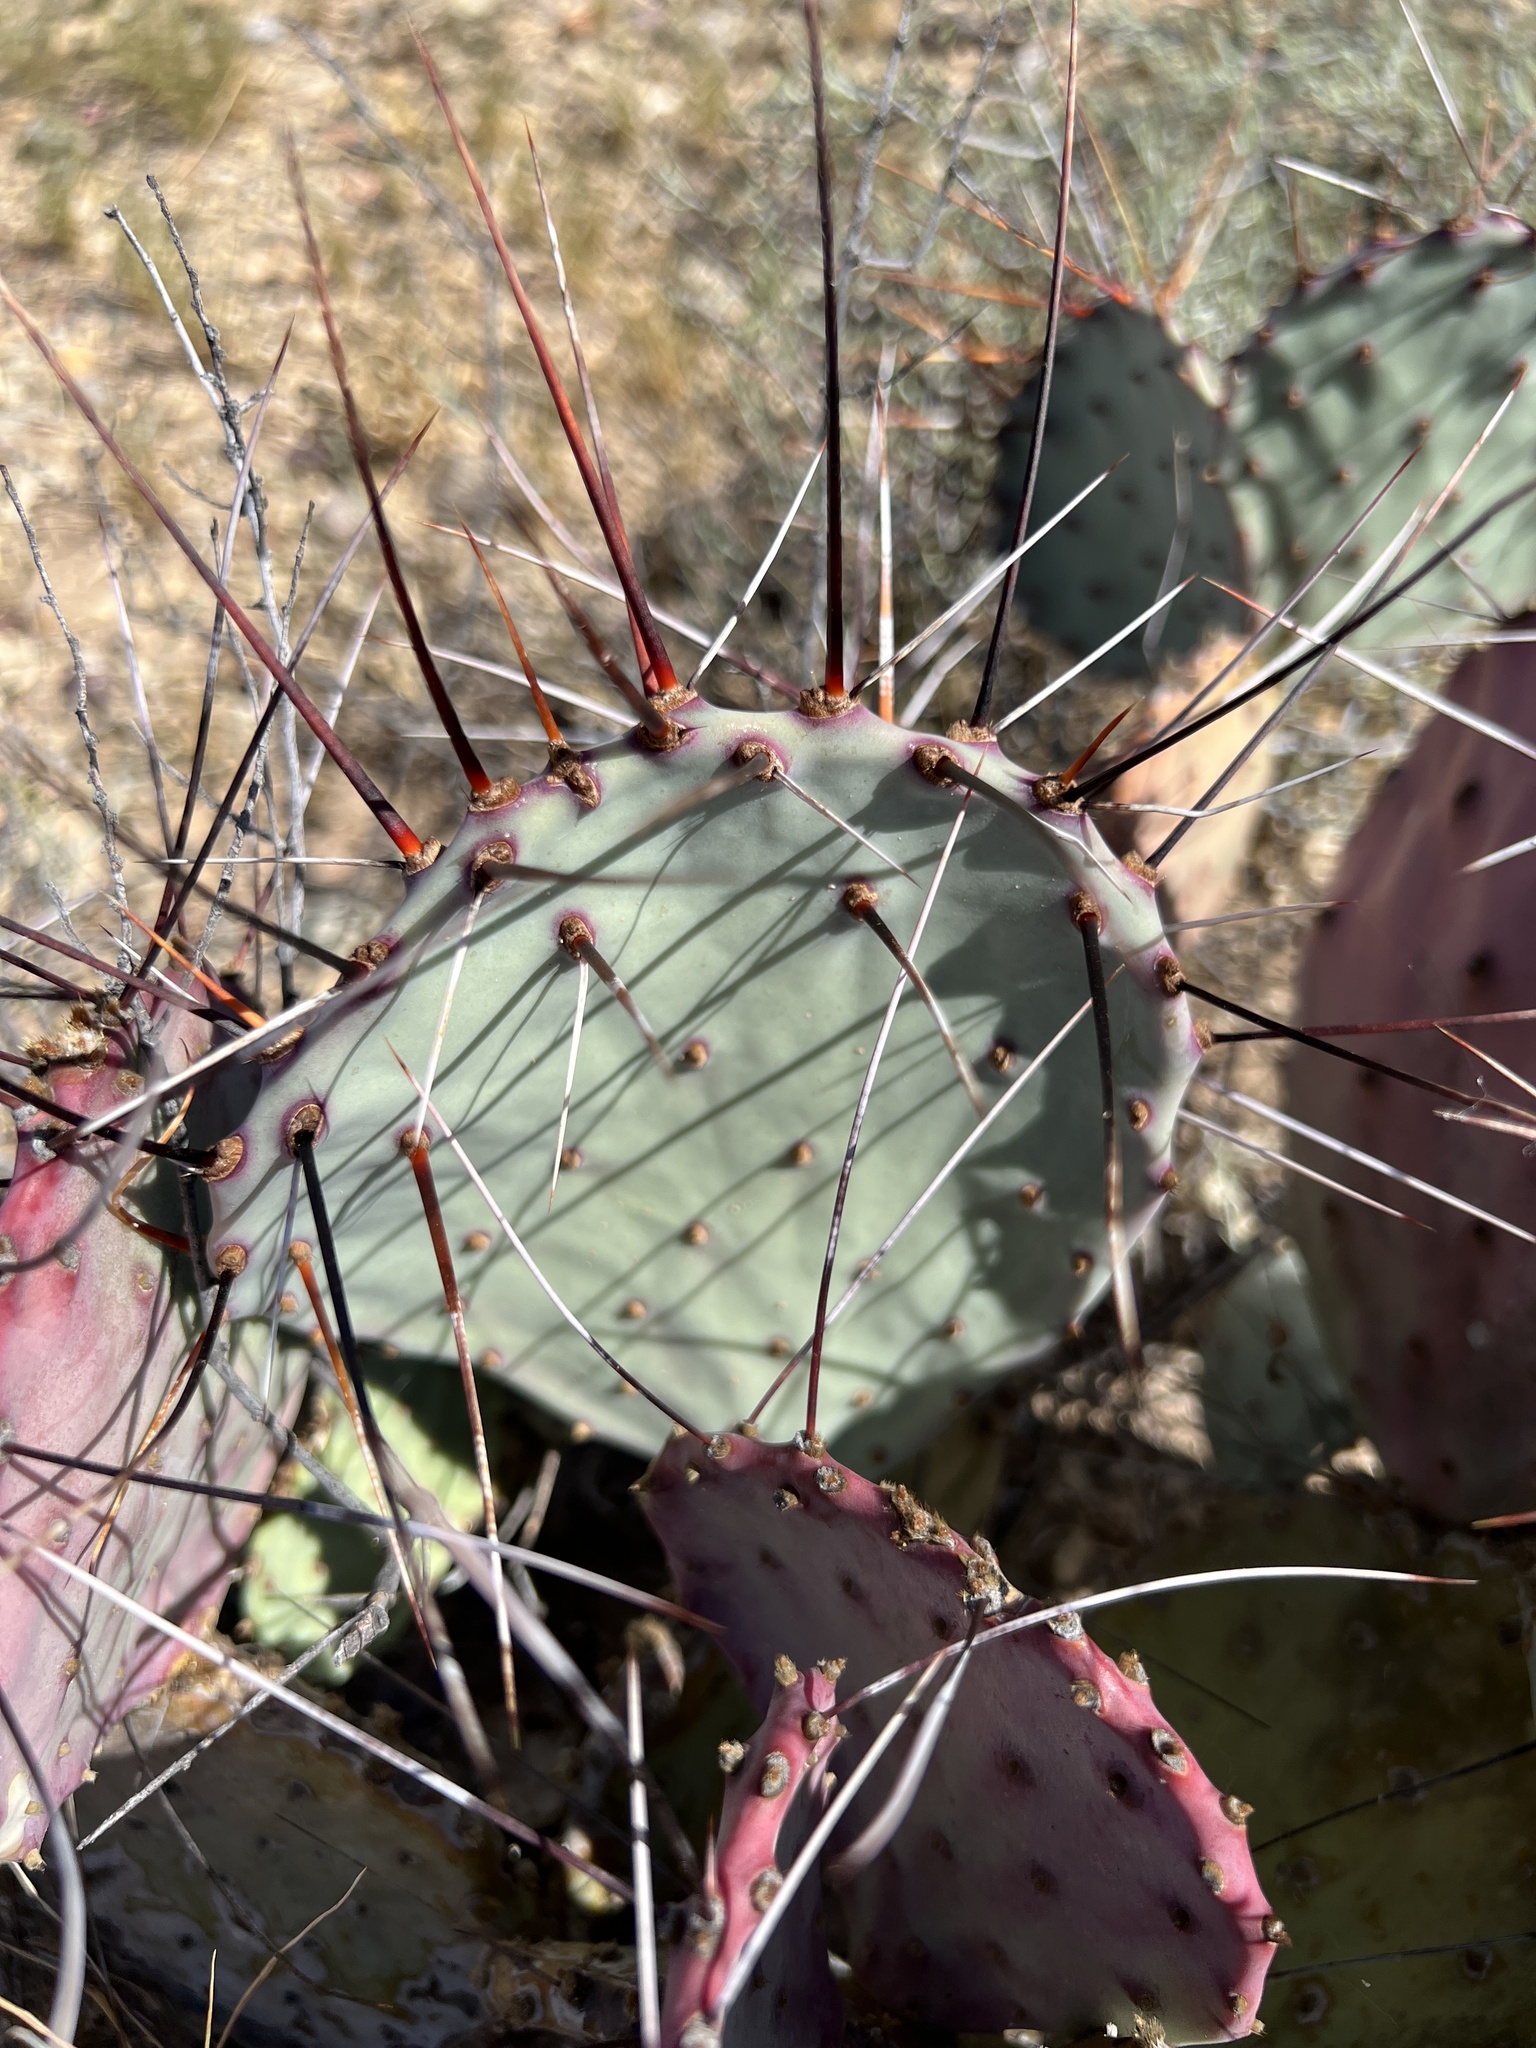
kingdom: Plantae
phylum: Tracheophyta
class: Magnoliopsida
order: Caryophyllales
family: Cactaceae
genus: Opuntia
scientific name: Opuntia phaeacantha
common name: New mexico prickly-pear
